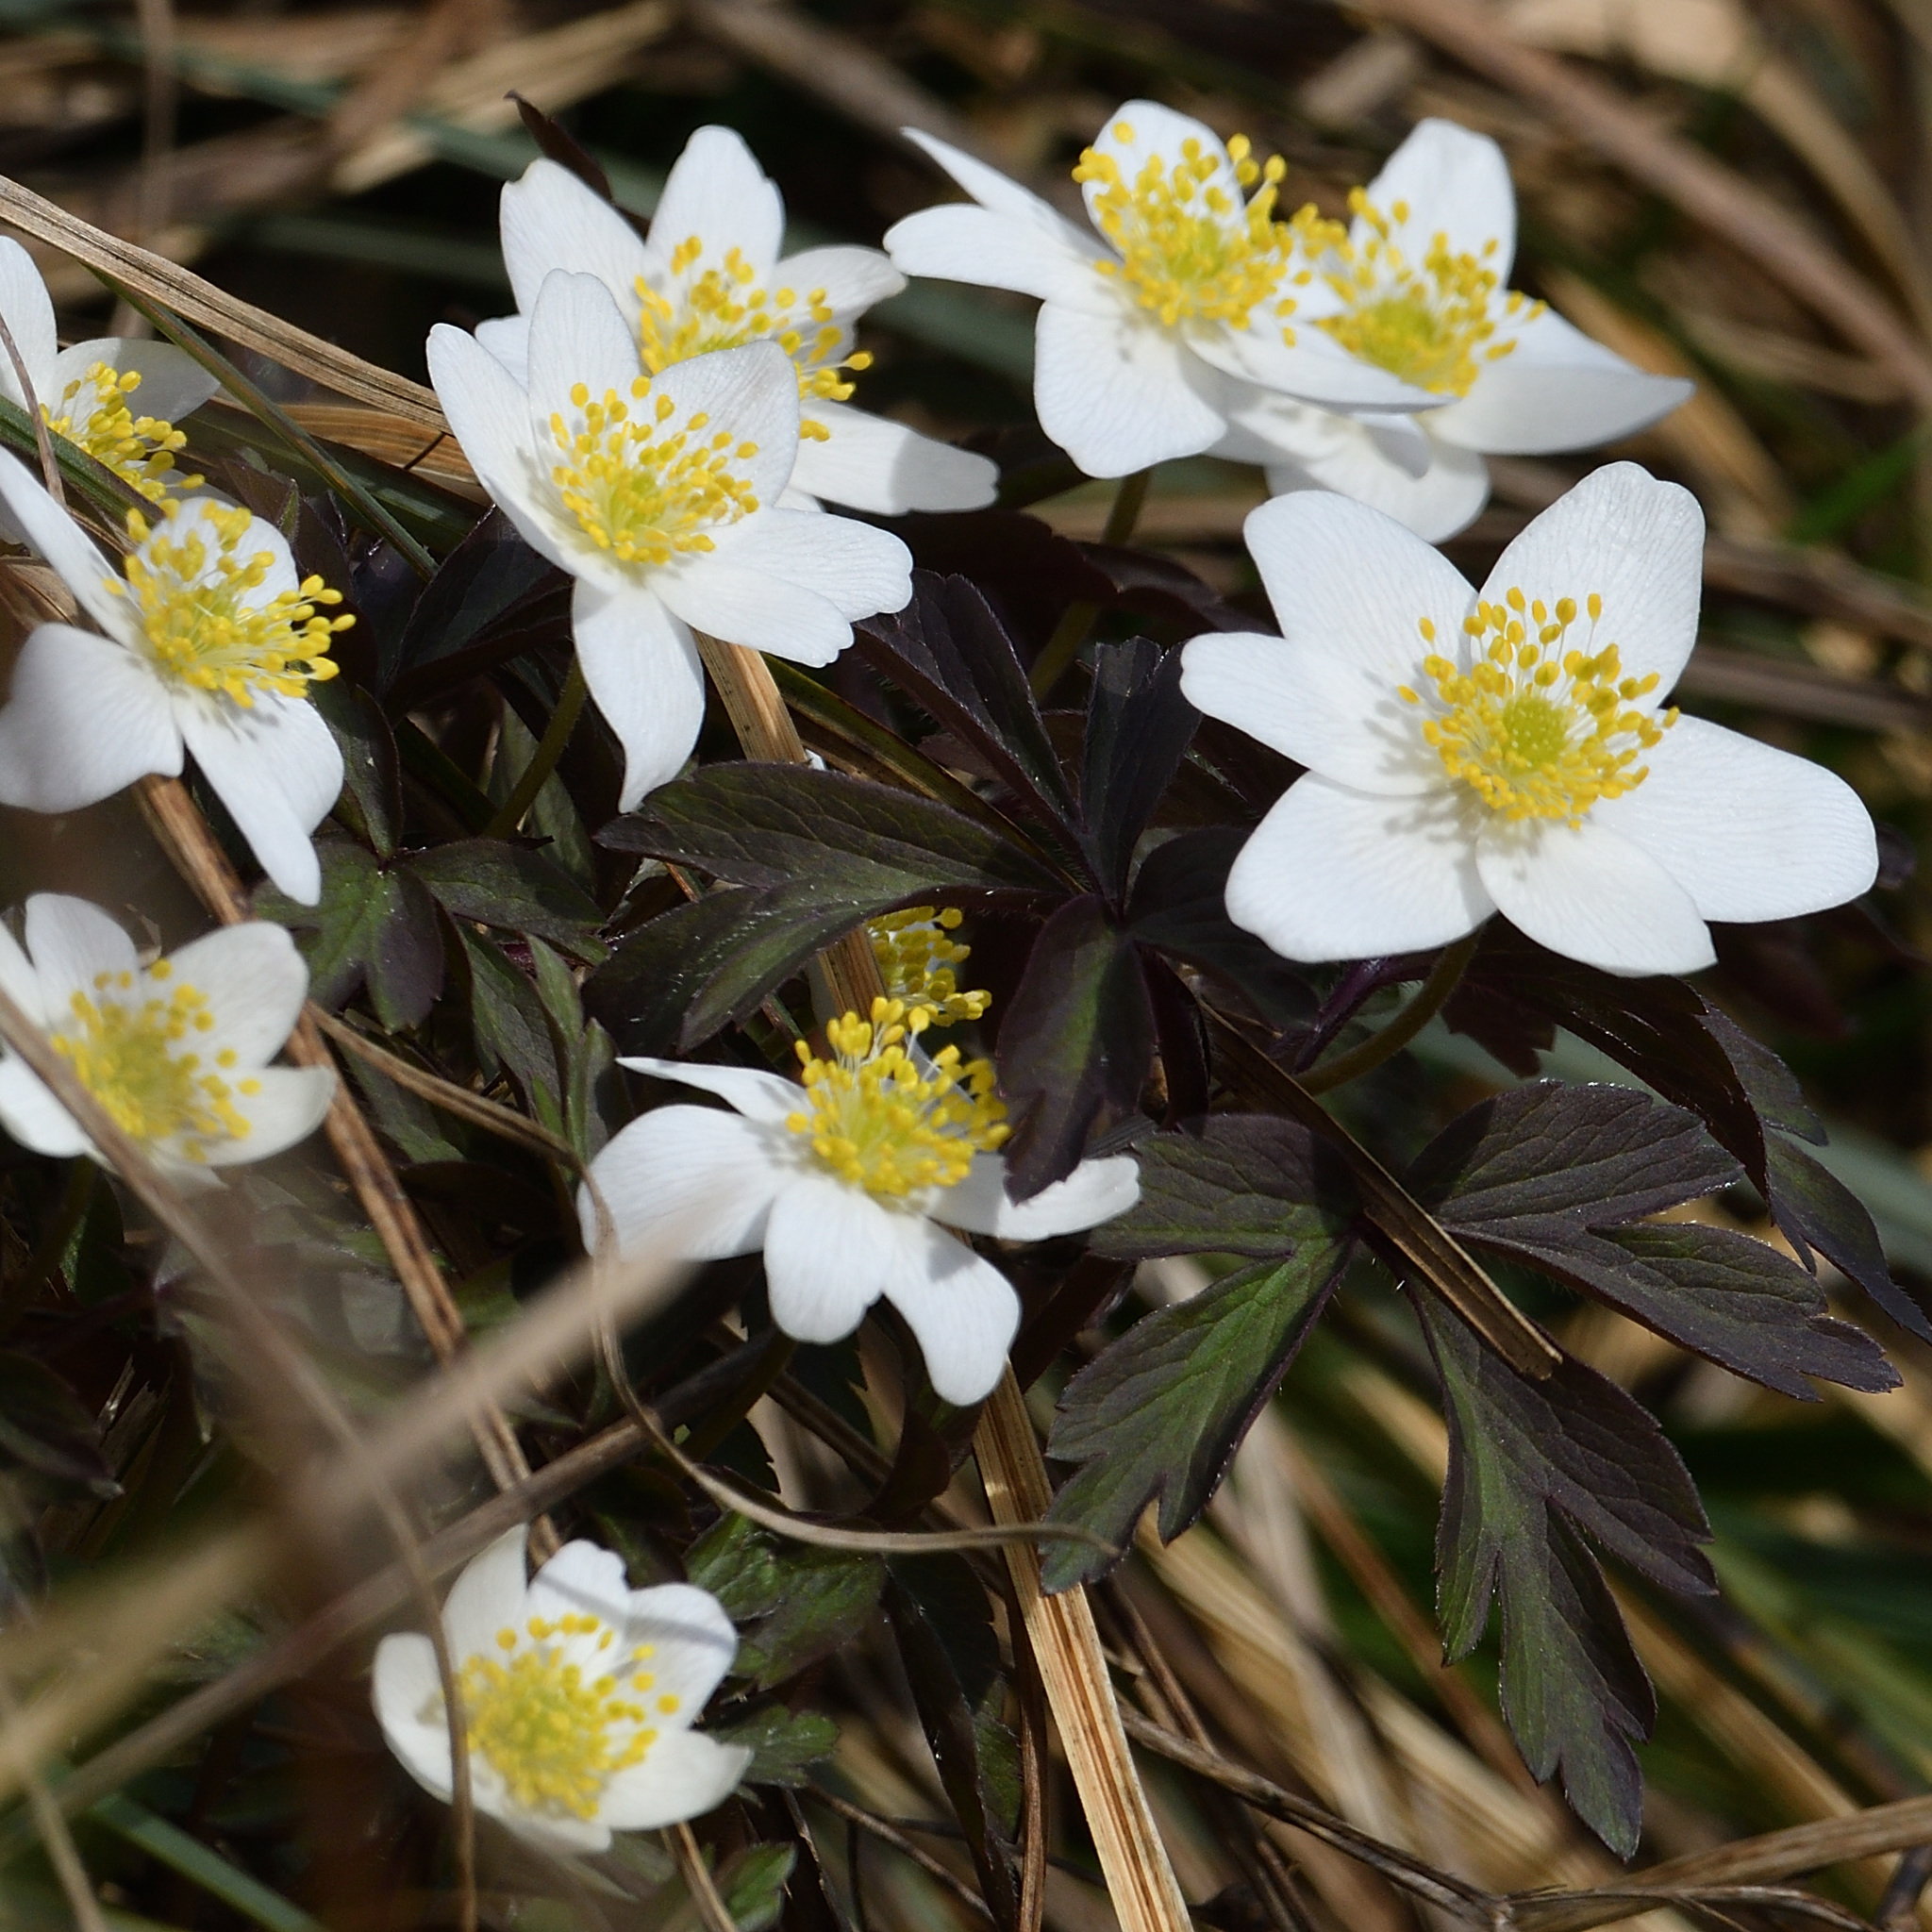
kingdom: Plantae
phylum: Tracheophyta
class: Magnoliopsida
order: Ranunculales
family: Ranunculaceae
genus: Anemone
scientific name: Anemone nemorosa
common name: Wood anemone
